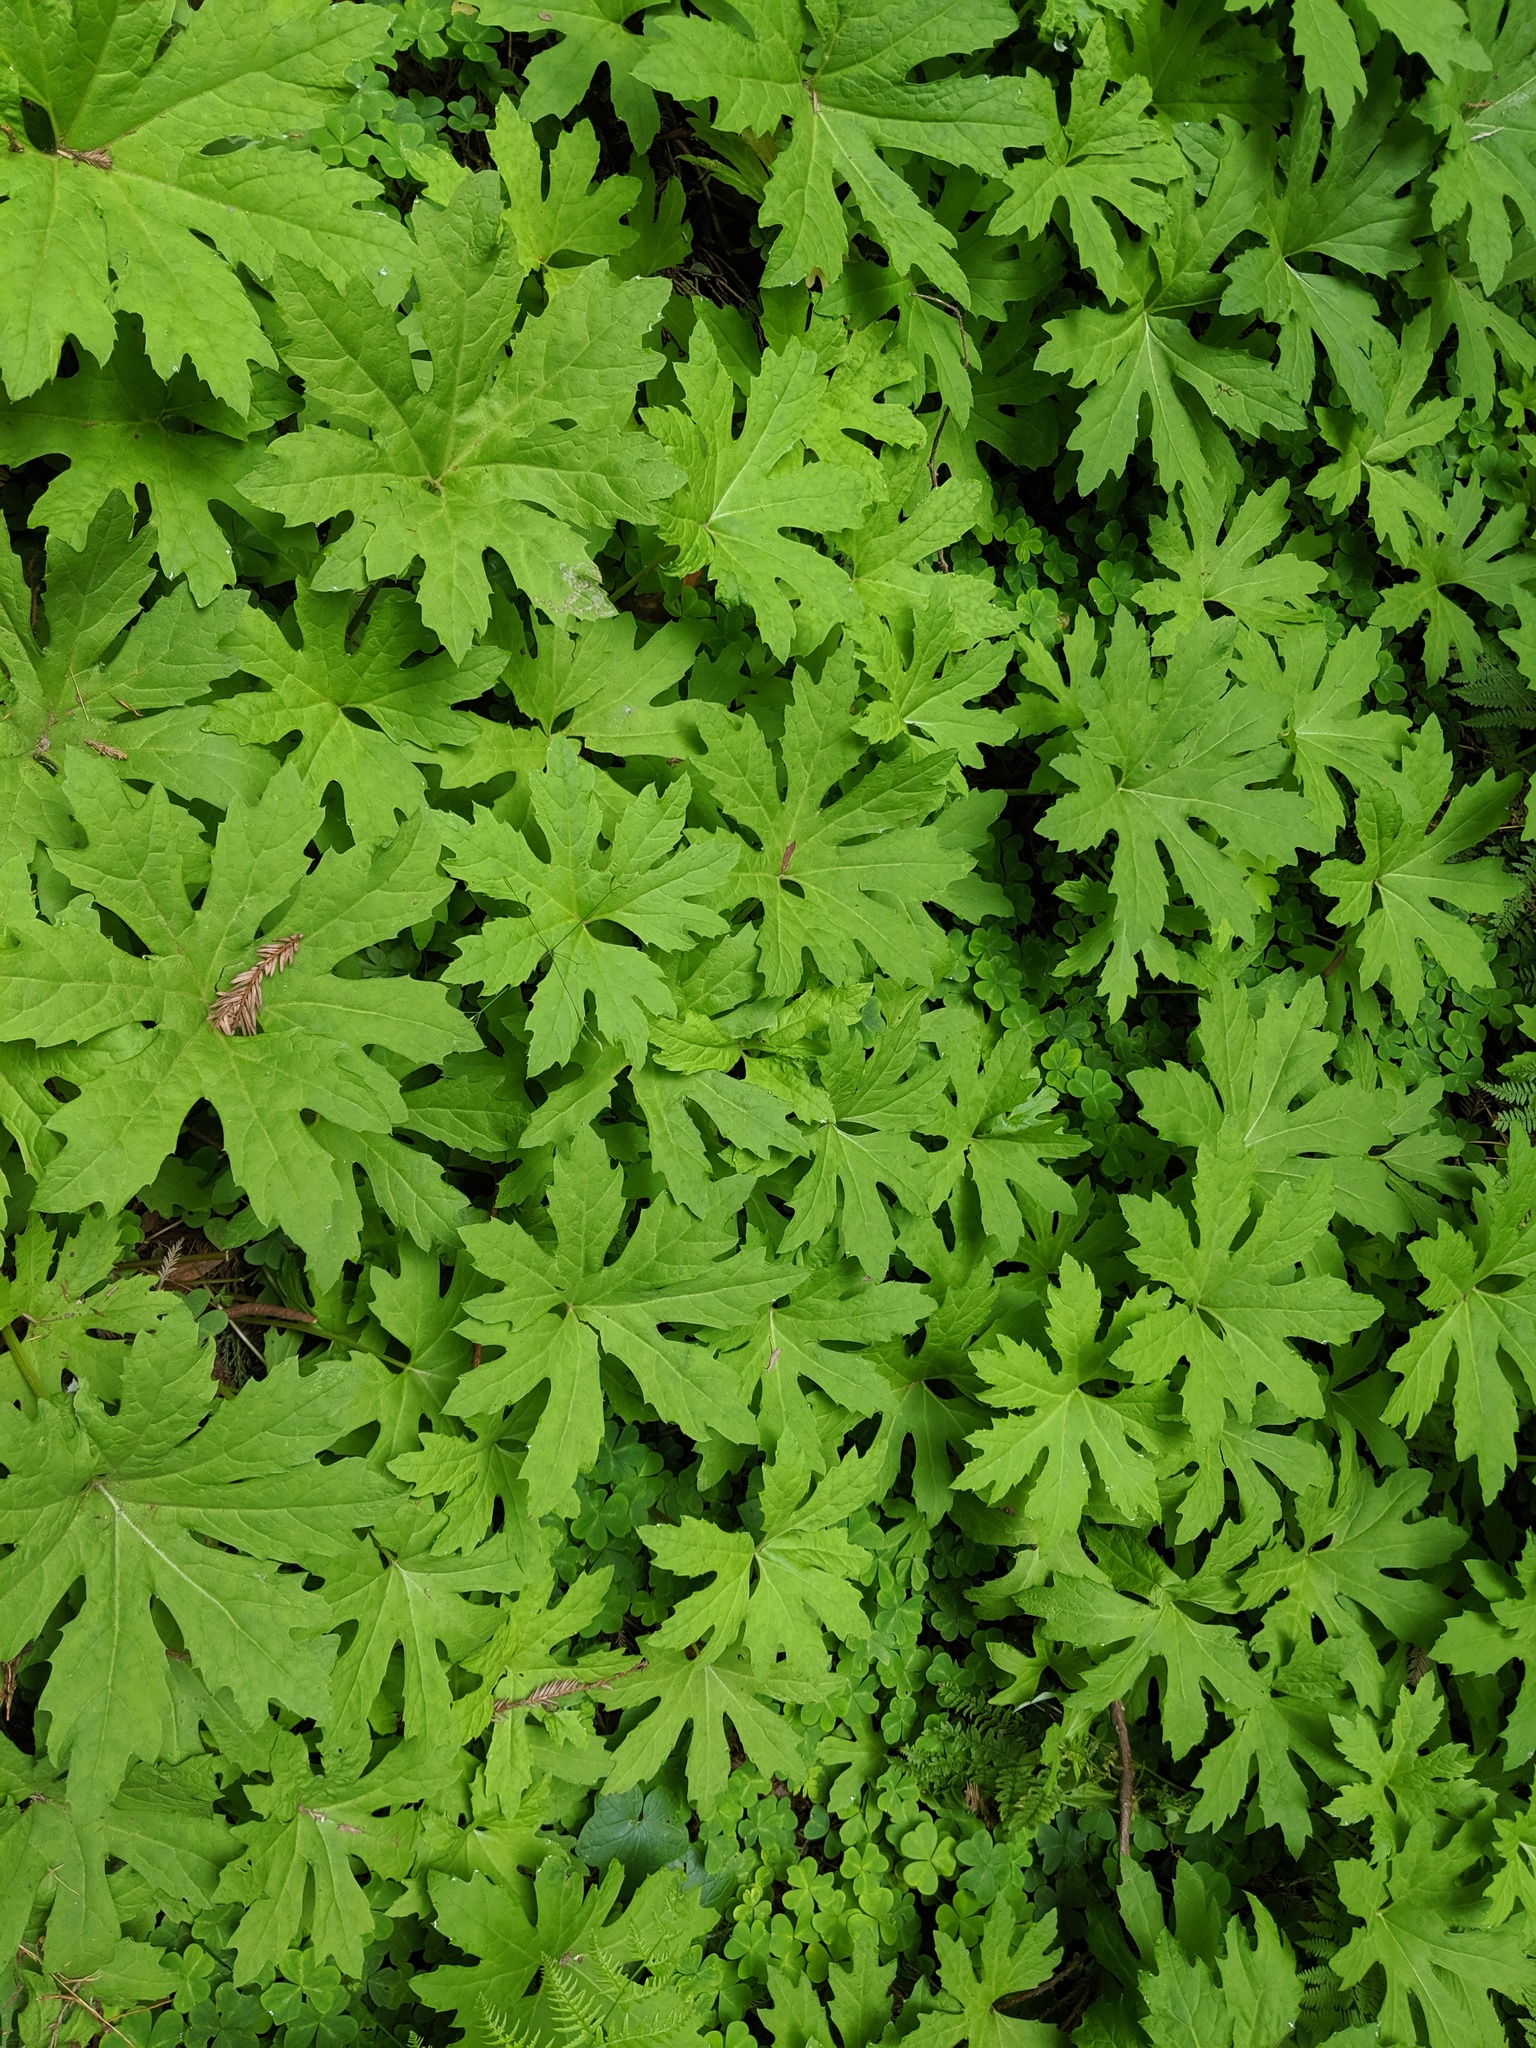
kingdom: Plantae
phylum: Tracheophyta
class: Magnoliopsida
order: Asterales
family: Asteraceae
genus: Petasites
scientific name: Petasites frigidus
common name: Arctic butterbur
